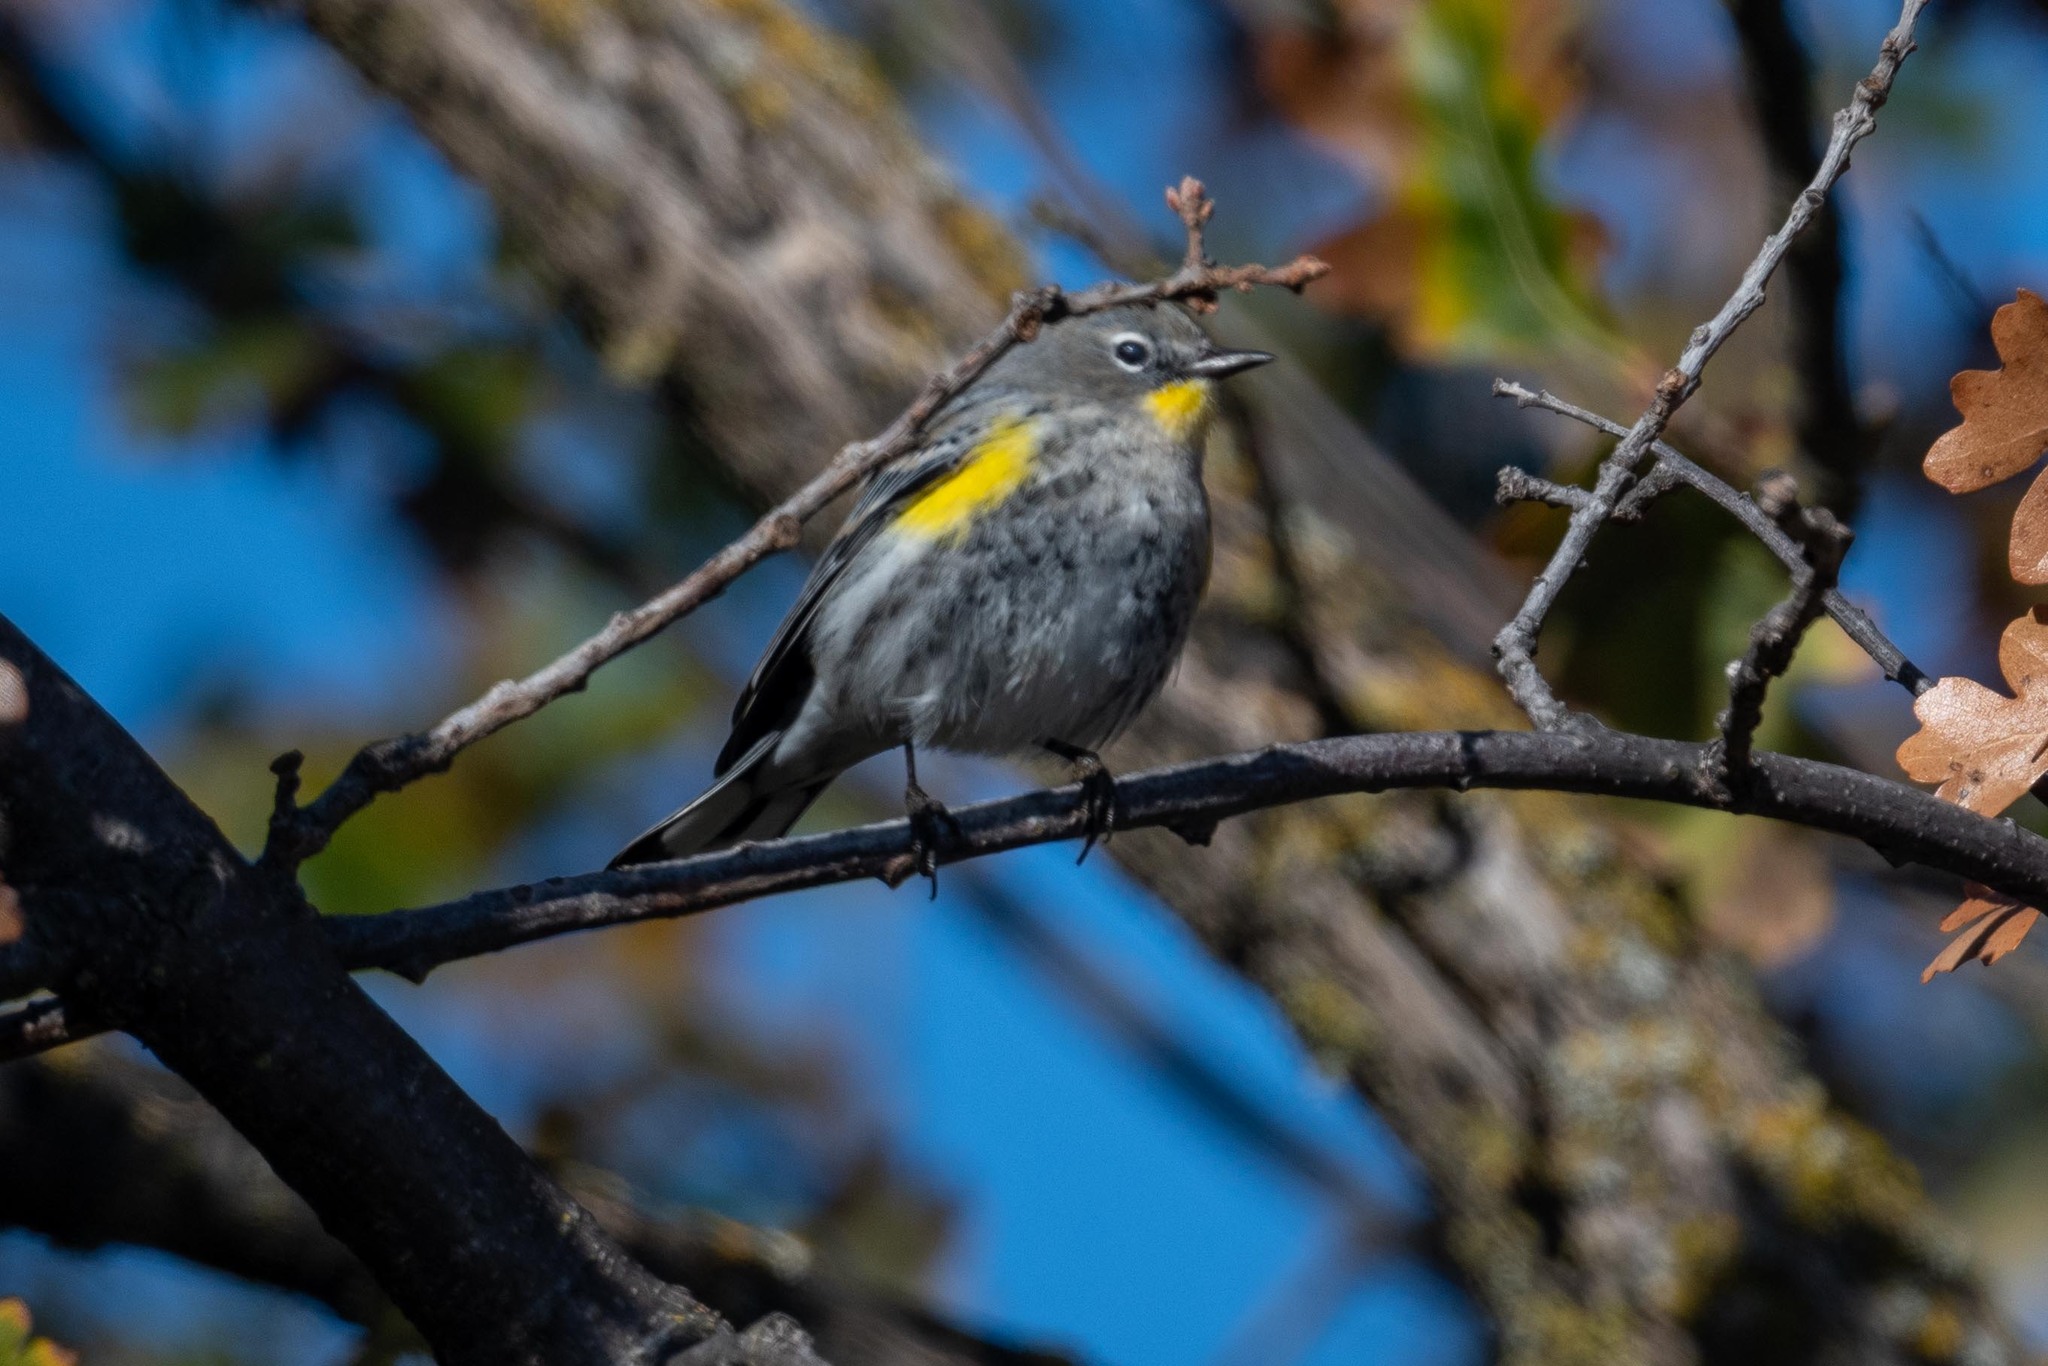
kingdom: Animalia
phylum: Chordata
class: Aves
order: Passeriformes
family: Parulidae
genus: Setophaga
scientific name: Setophaga coronata
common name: Myrtle warbler
